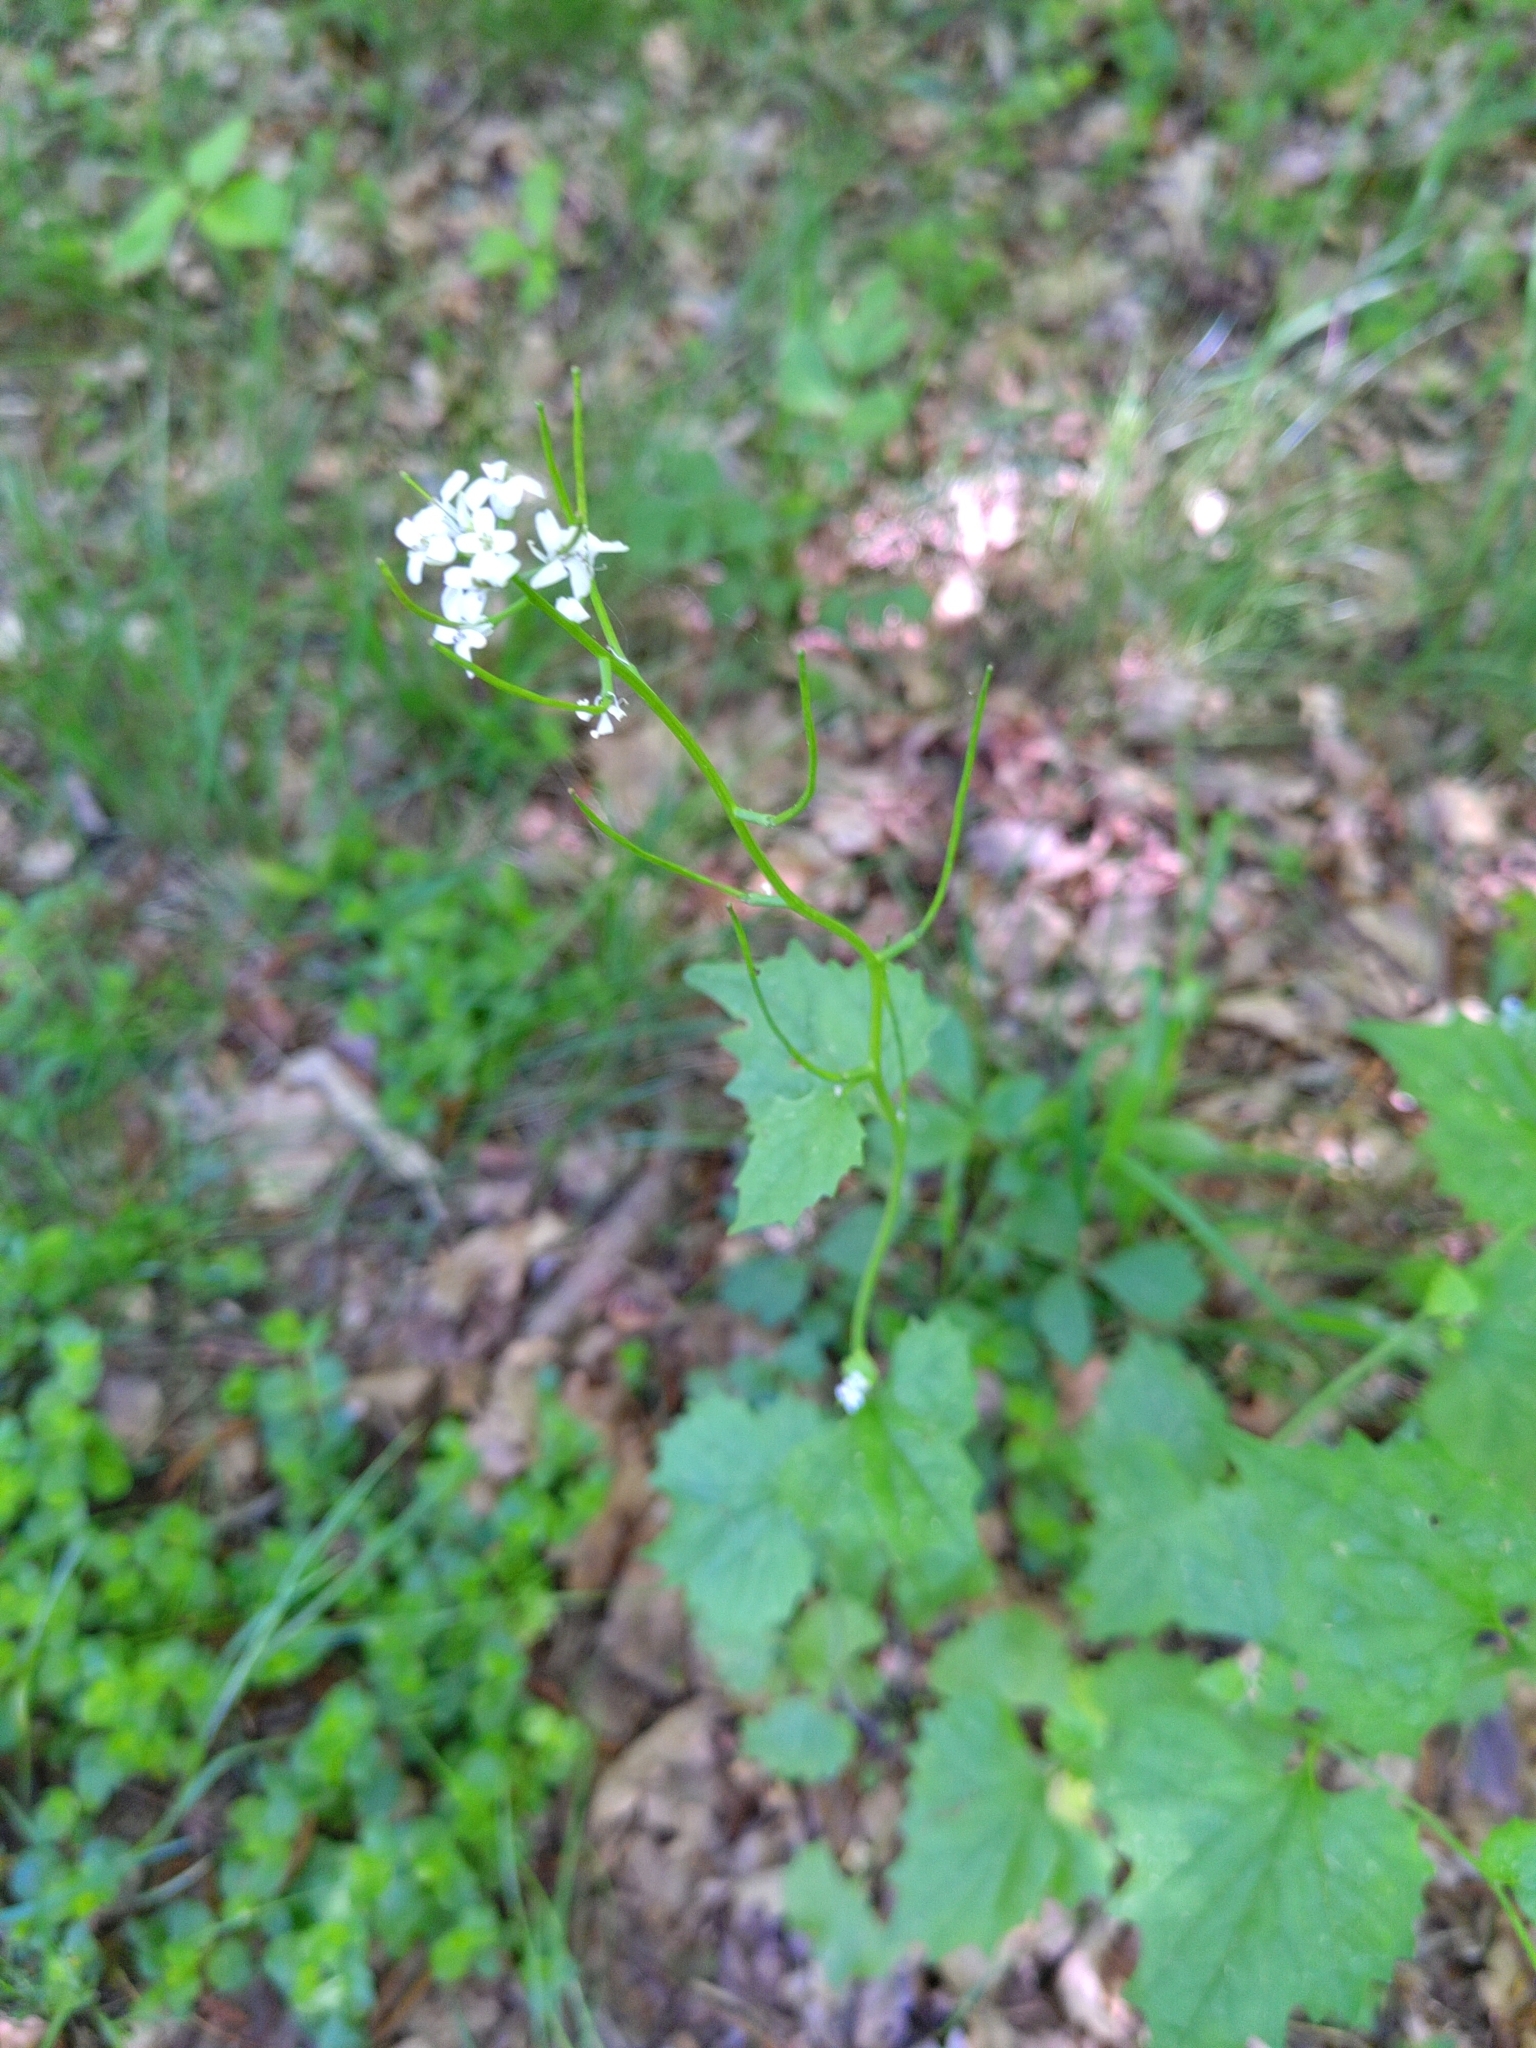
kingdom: Plantae
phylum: Tracheophyta
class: Magnoliopsida
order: Brassicales
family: Brassicaceae
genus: Alliaria
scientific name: Alliaria petiolata
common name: Garlic mustard
